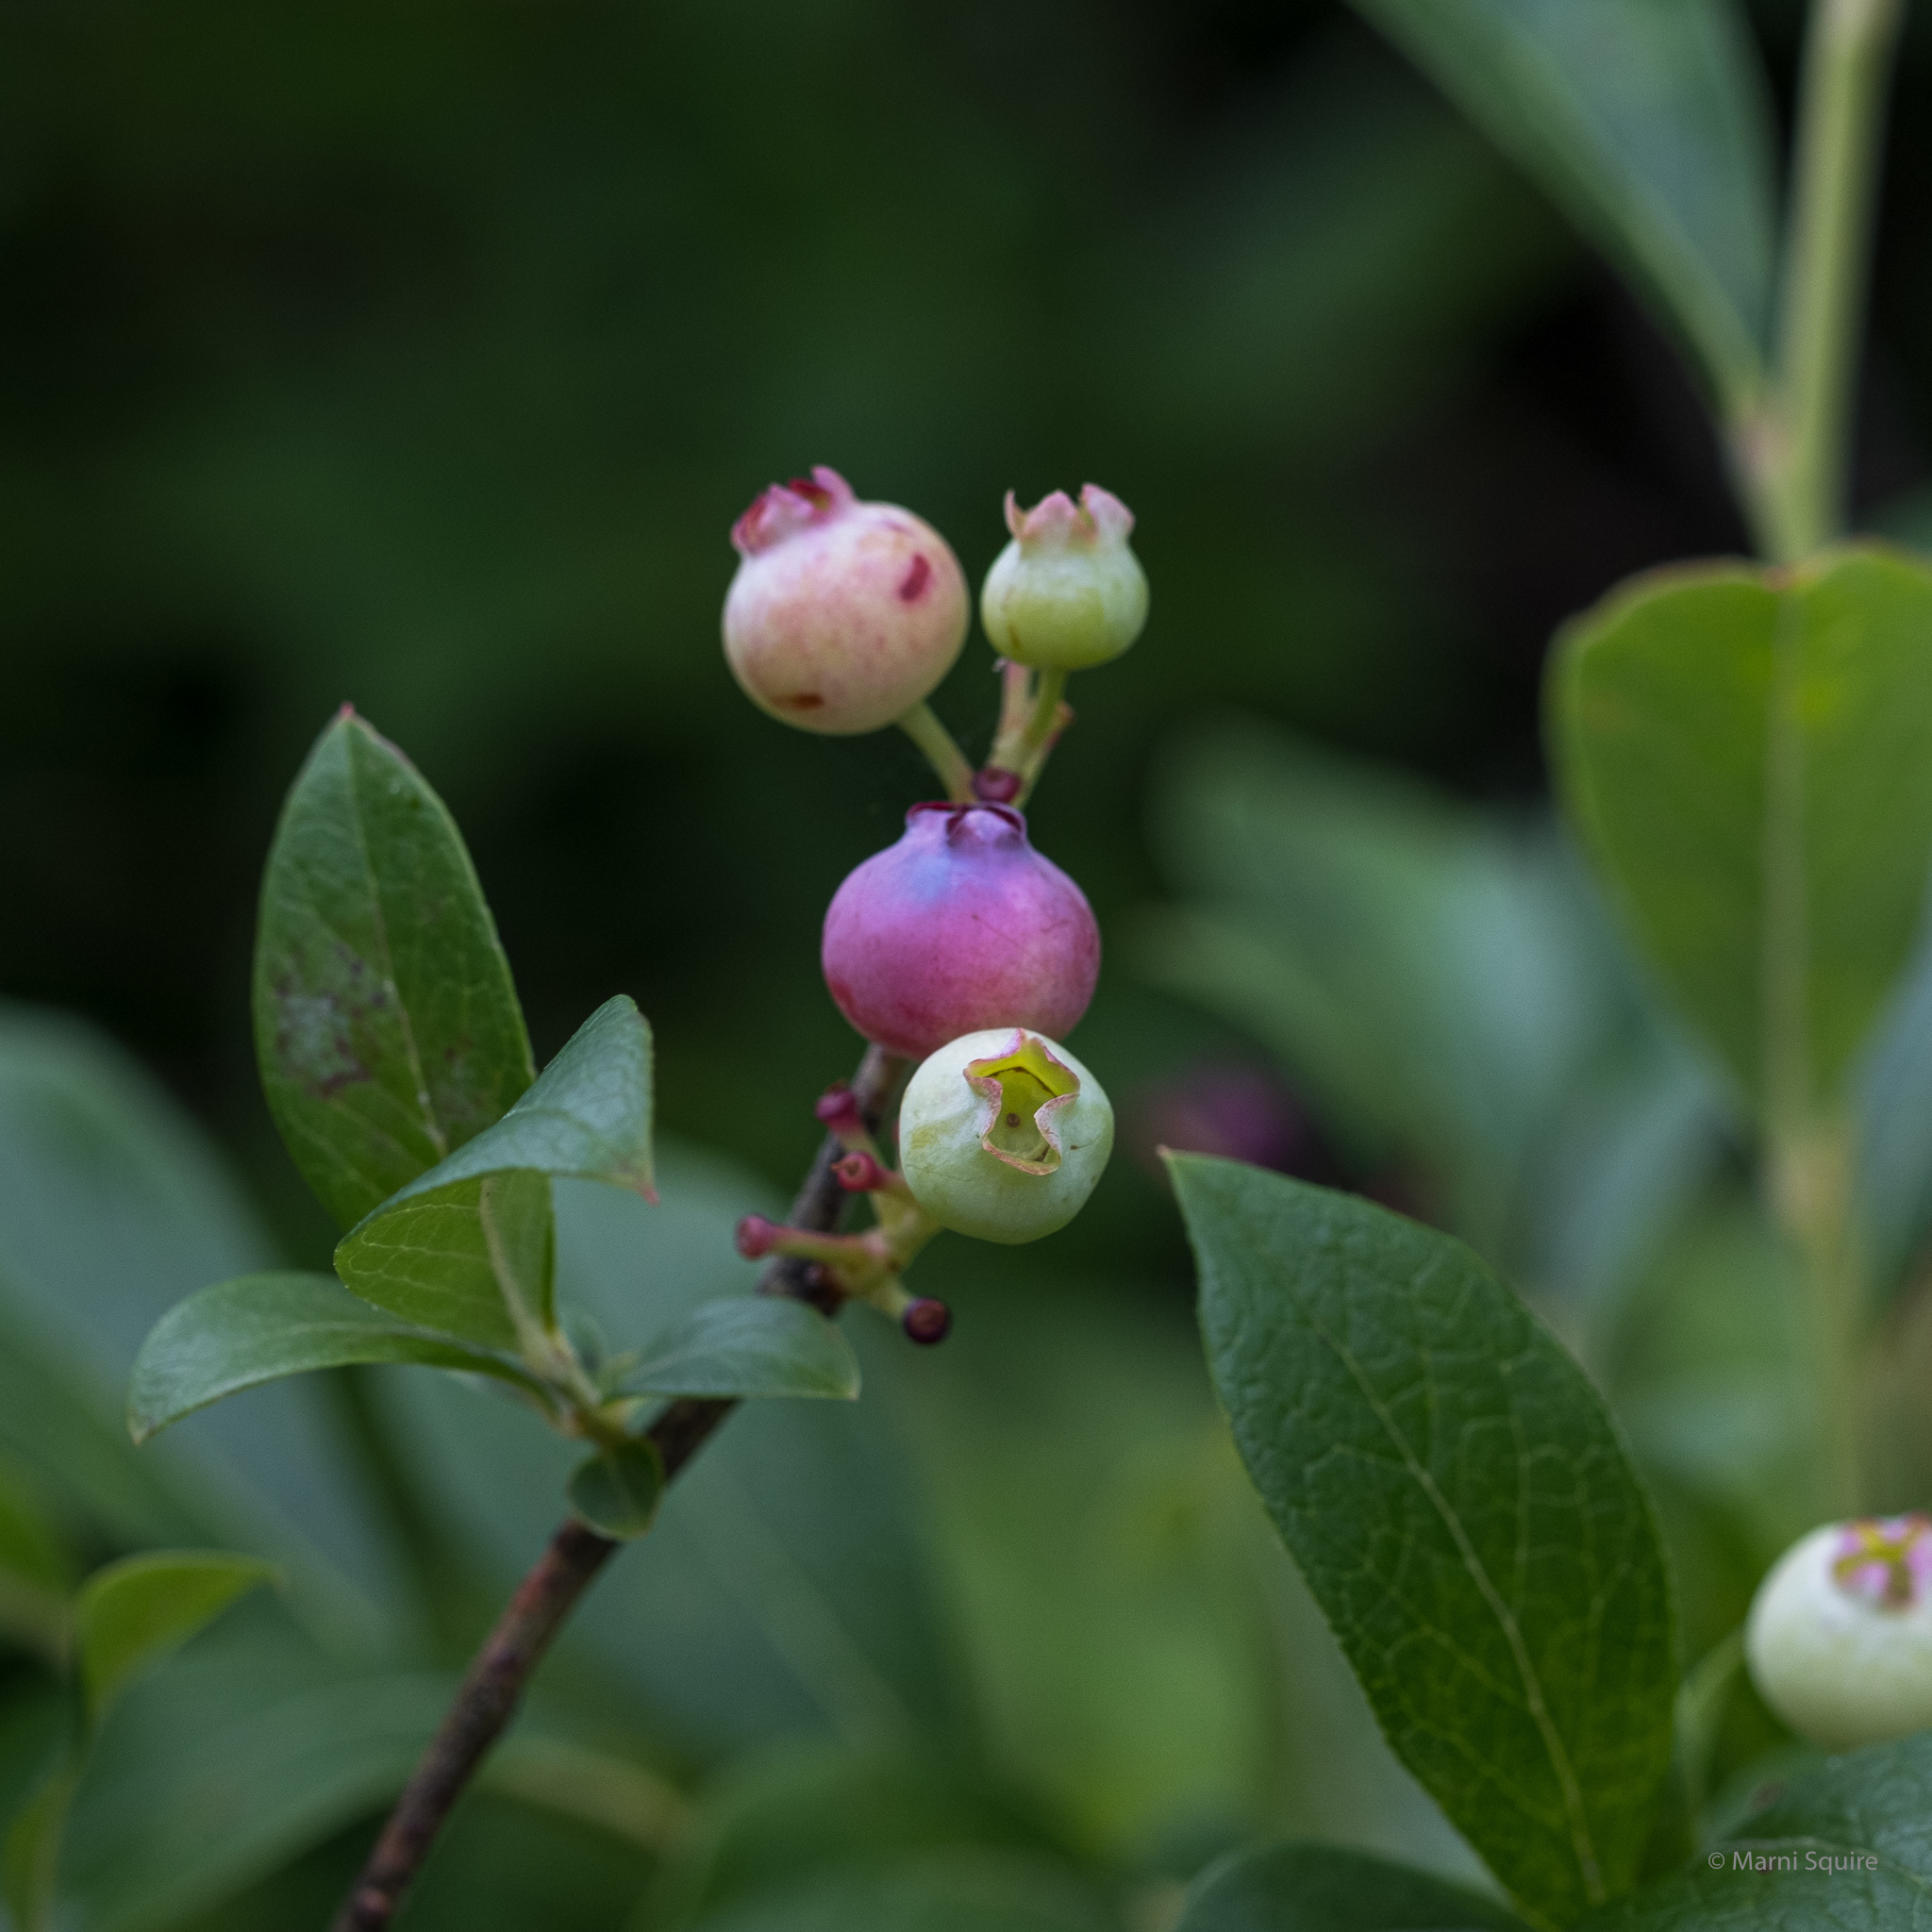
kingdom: Plantae
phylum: Tracheophyta
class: Magnoliopsida
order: Ericales
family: Ericaceae
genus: Vaccinium
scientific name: Vaccinium corymbosum
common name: Blueberry
